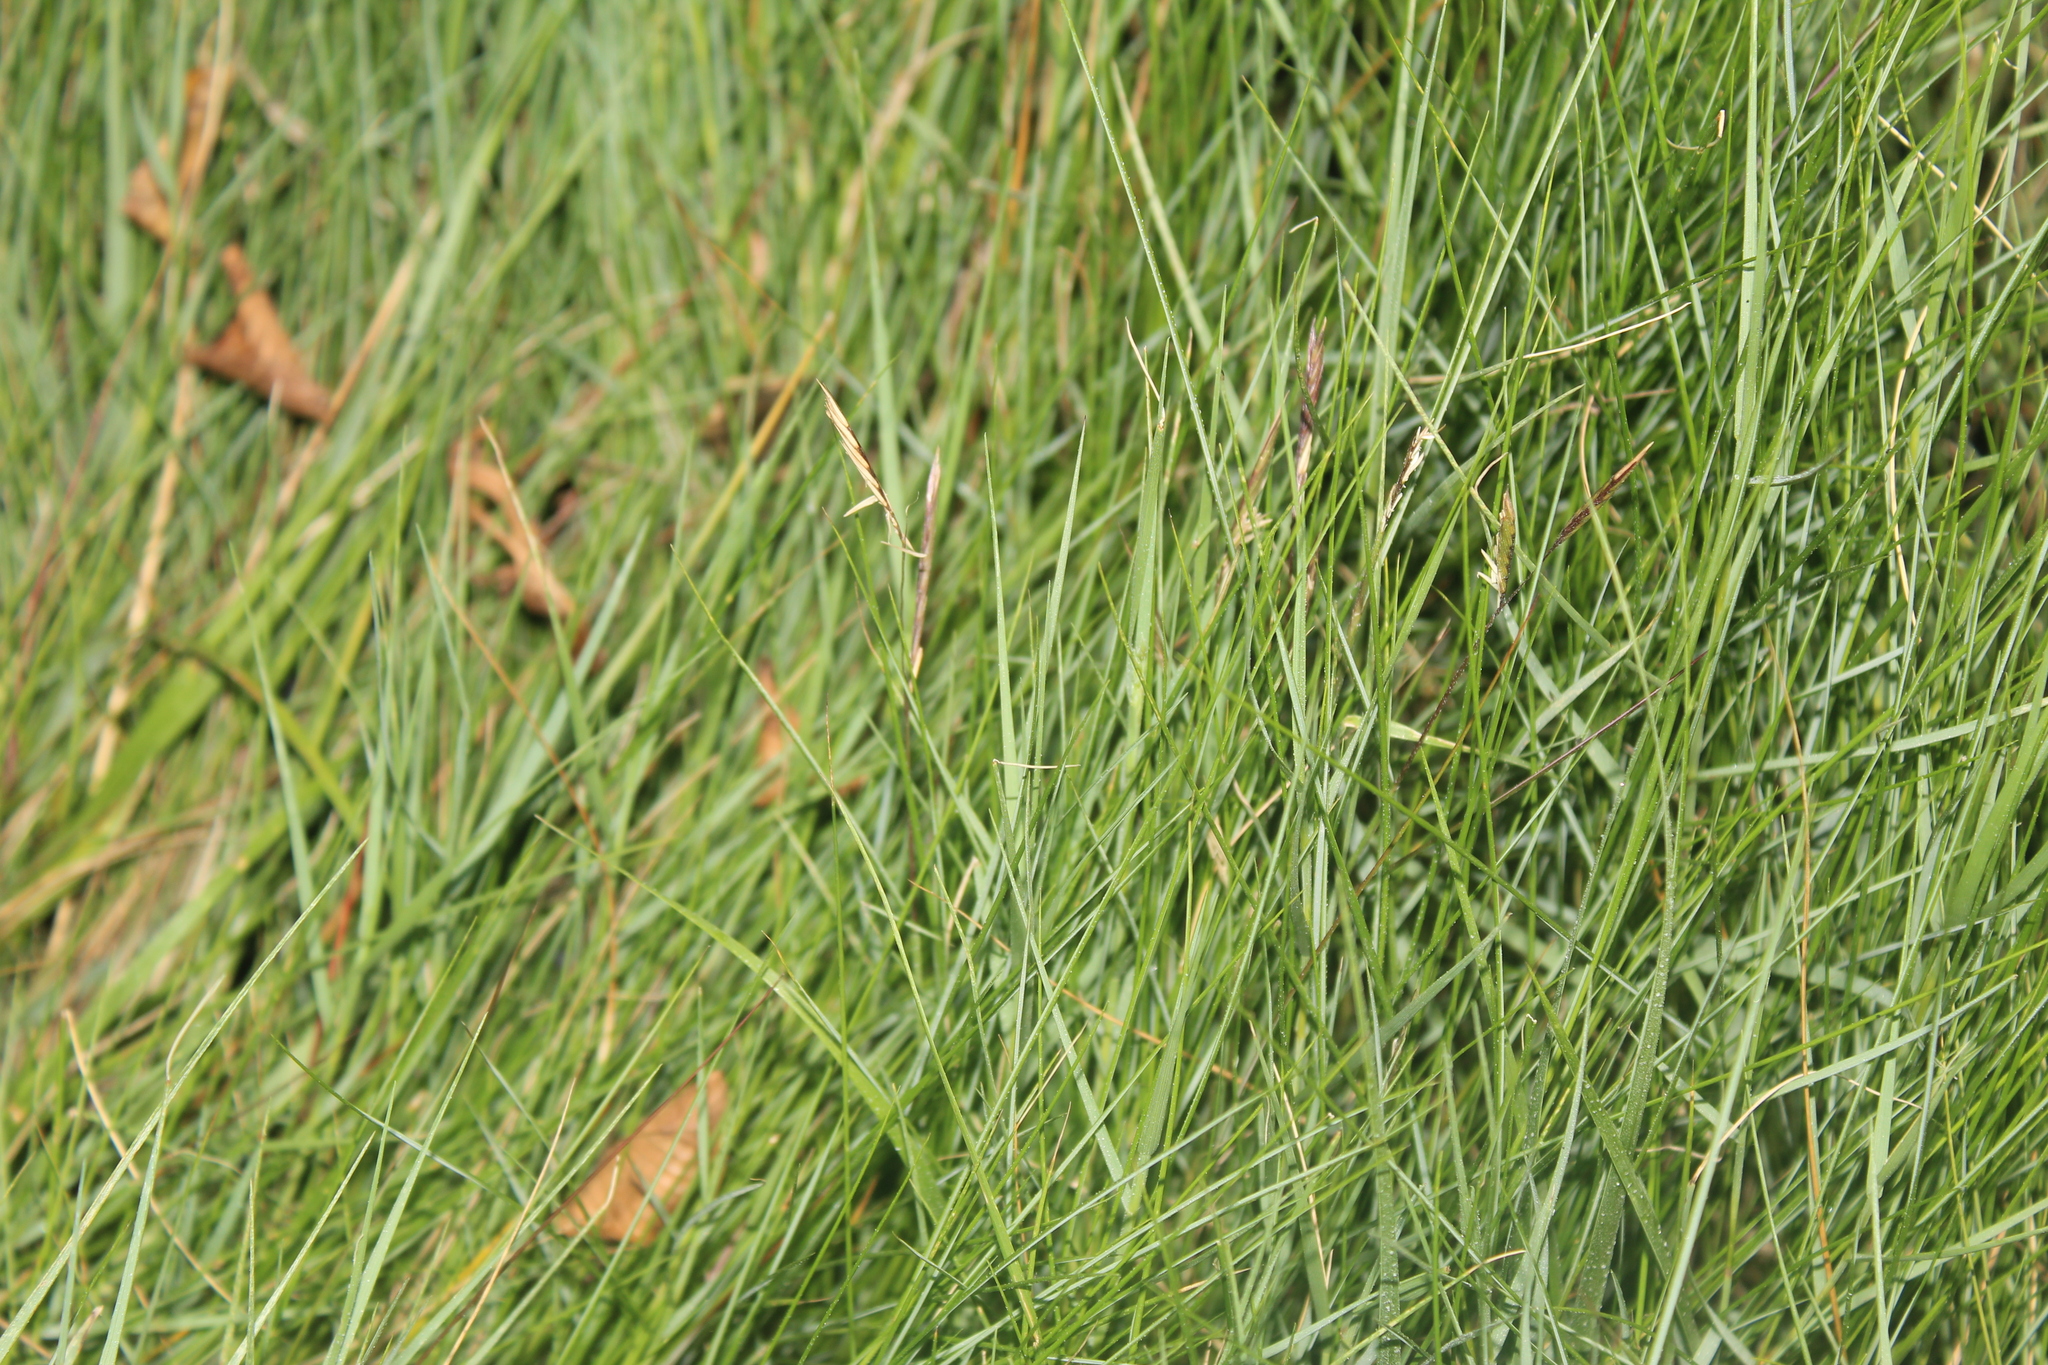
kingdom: Plantae
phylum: Tracheophyta
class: Liliopsida
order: Poales
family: Poaceae
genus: Sporobolus
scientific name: Sporobolus pumilus
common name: Highwater grass
